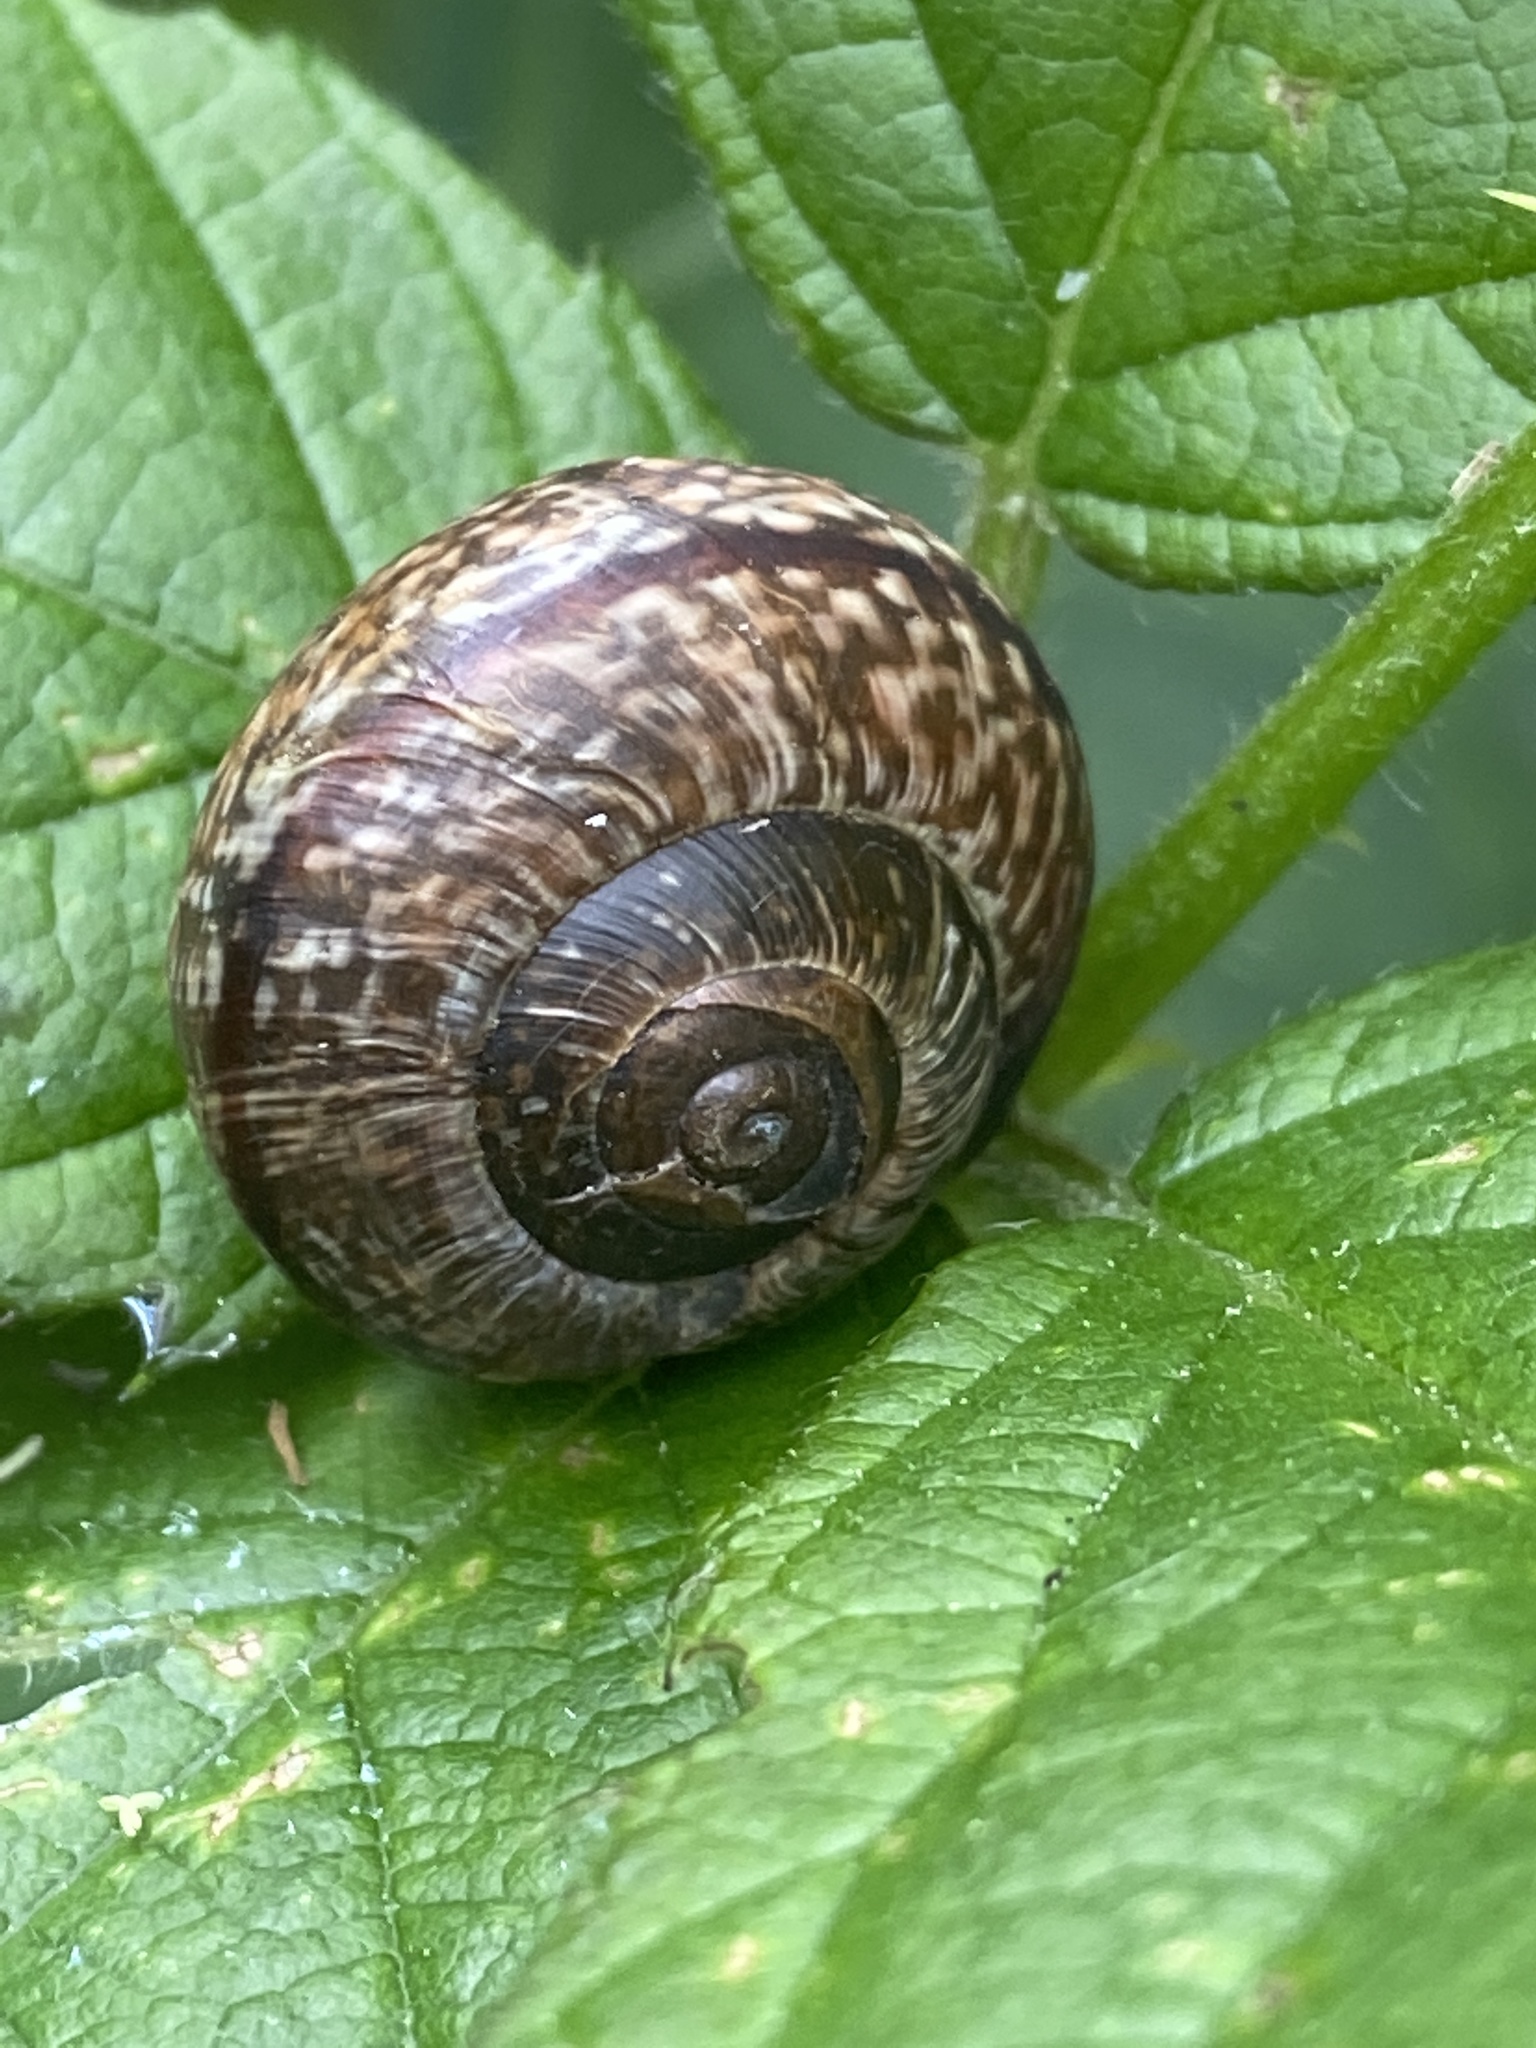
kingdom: Animalia
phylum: Mollusca
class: Gastropoda
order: Stylommatophora
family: Helicidae
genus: Arianta
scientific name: Arianta arbustorum
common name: Copse snail
